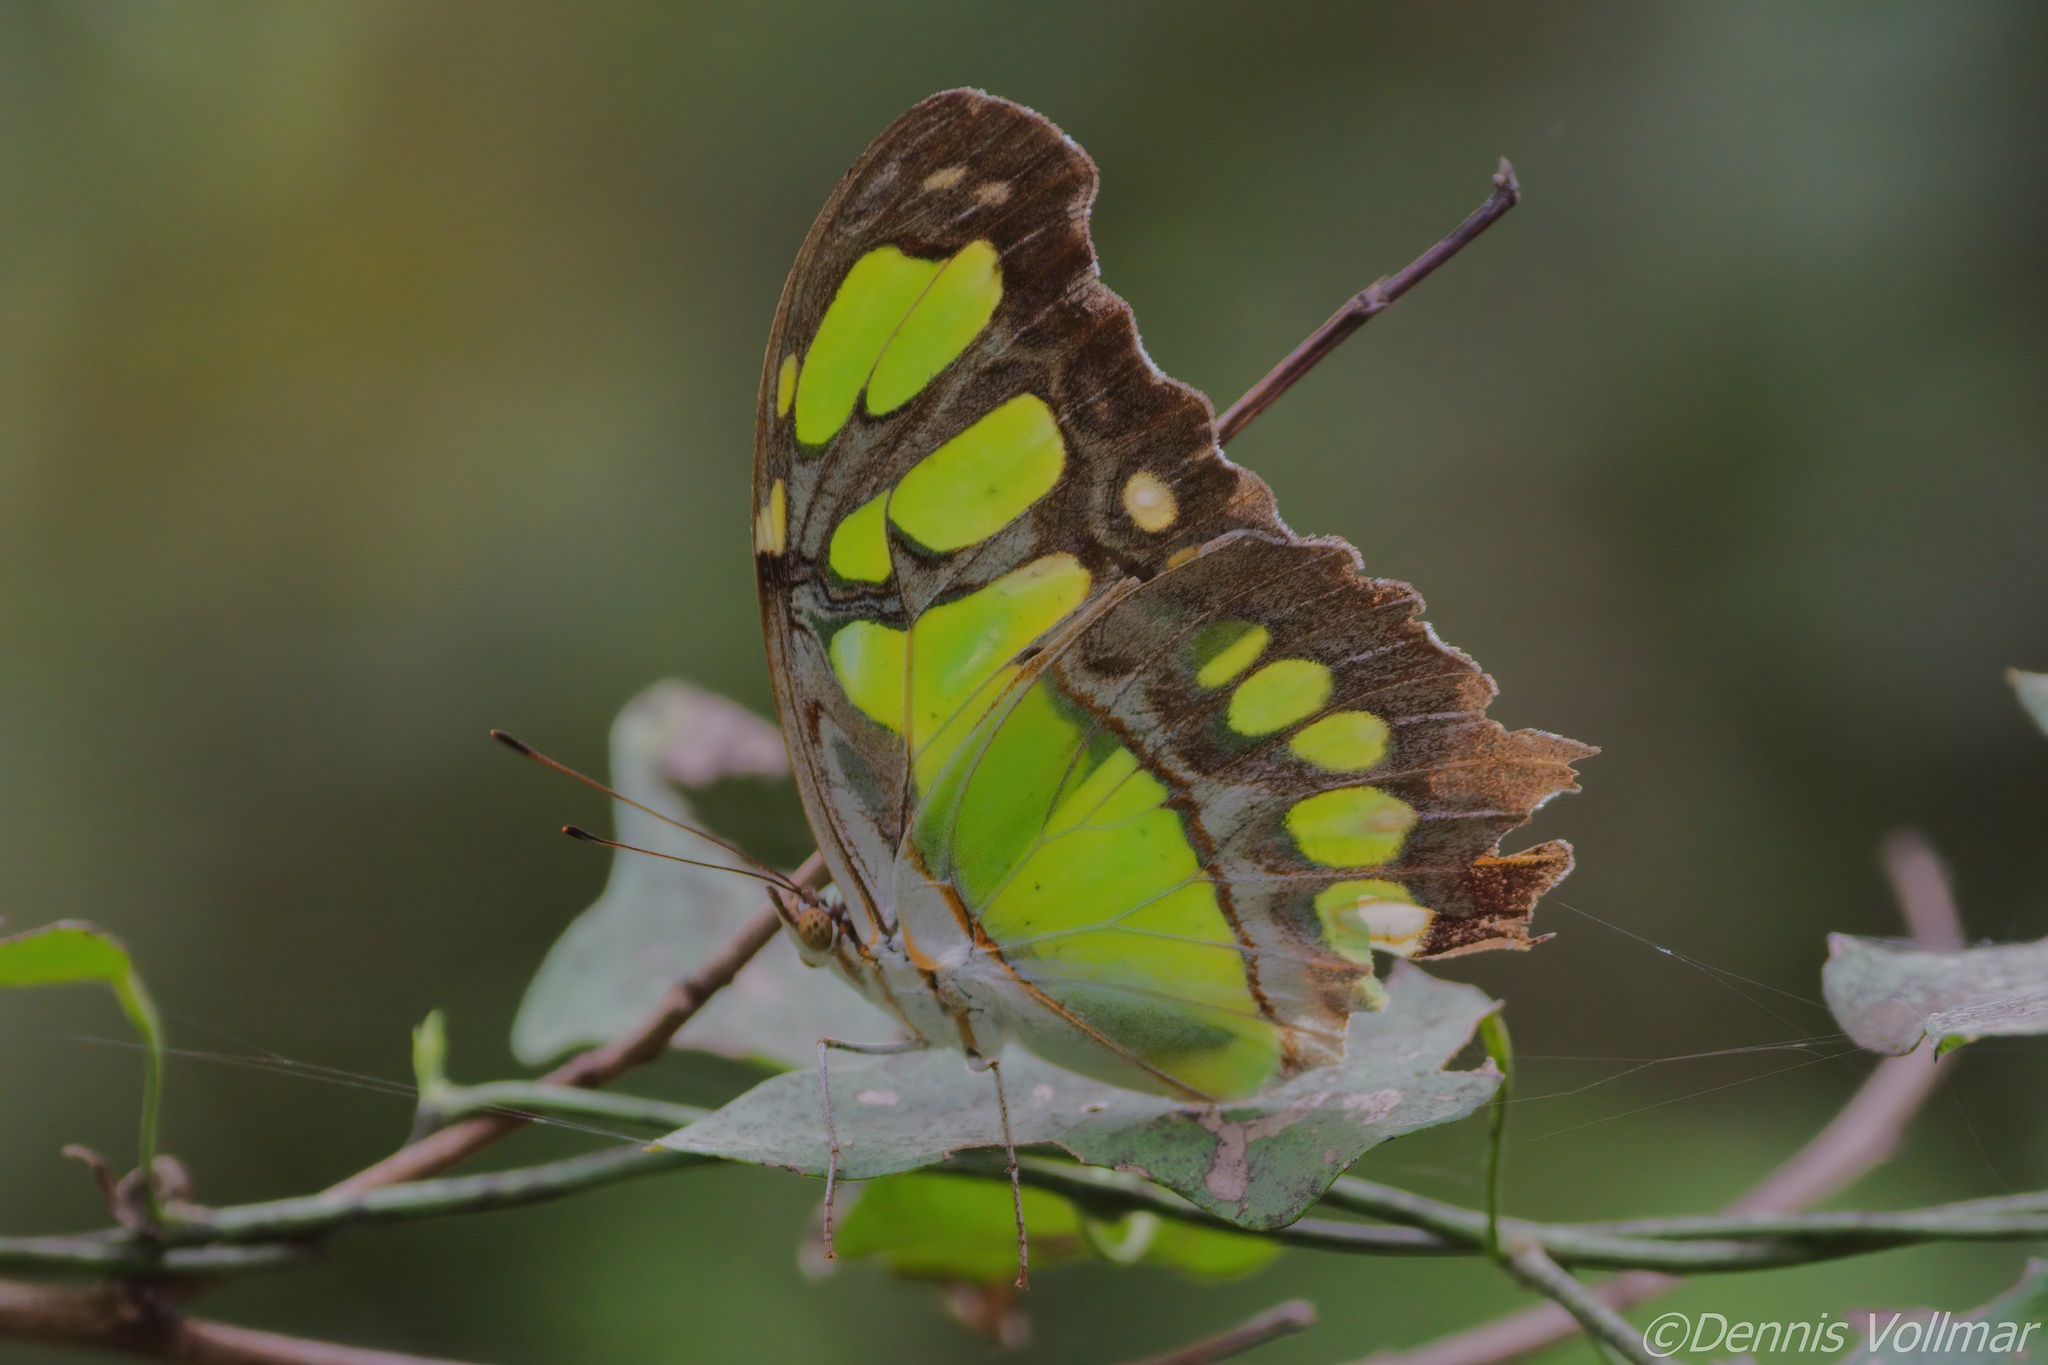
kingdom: Animalia
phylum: Arthropoda
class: Insecta
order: Lepidoptera
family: Nymphalidae
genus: Siproeta
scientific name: Siproeta stelenes
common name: Malachite
